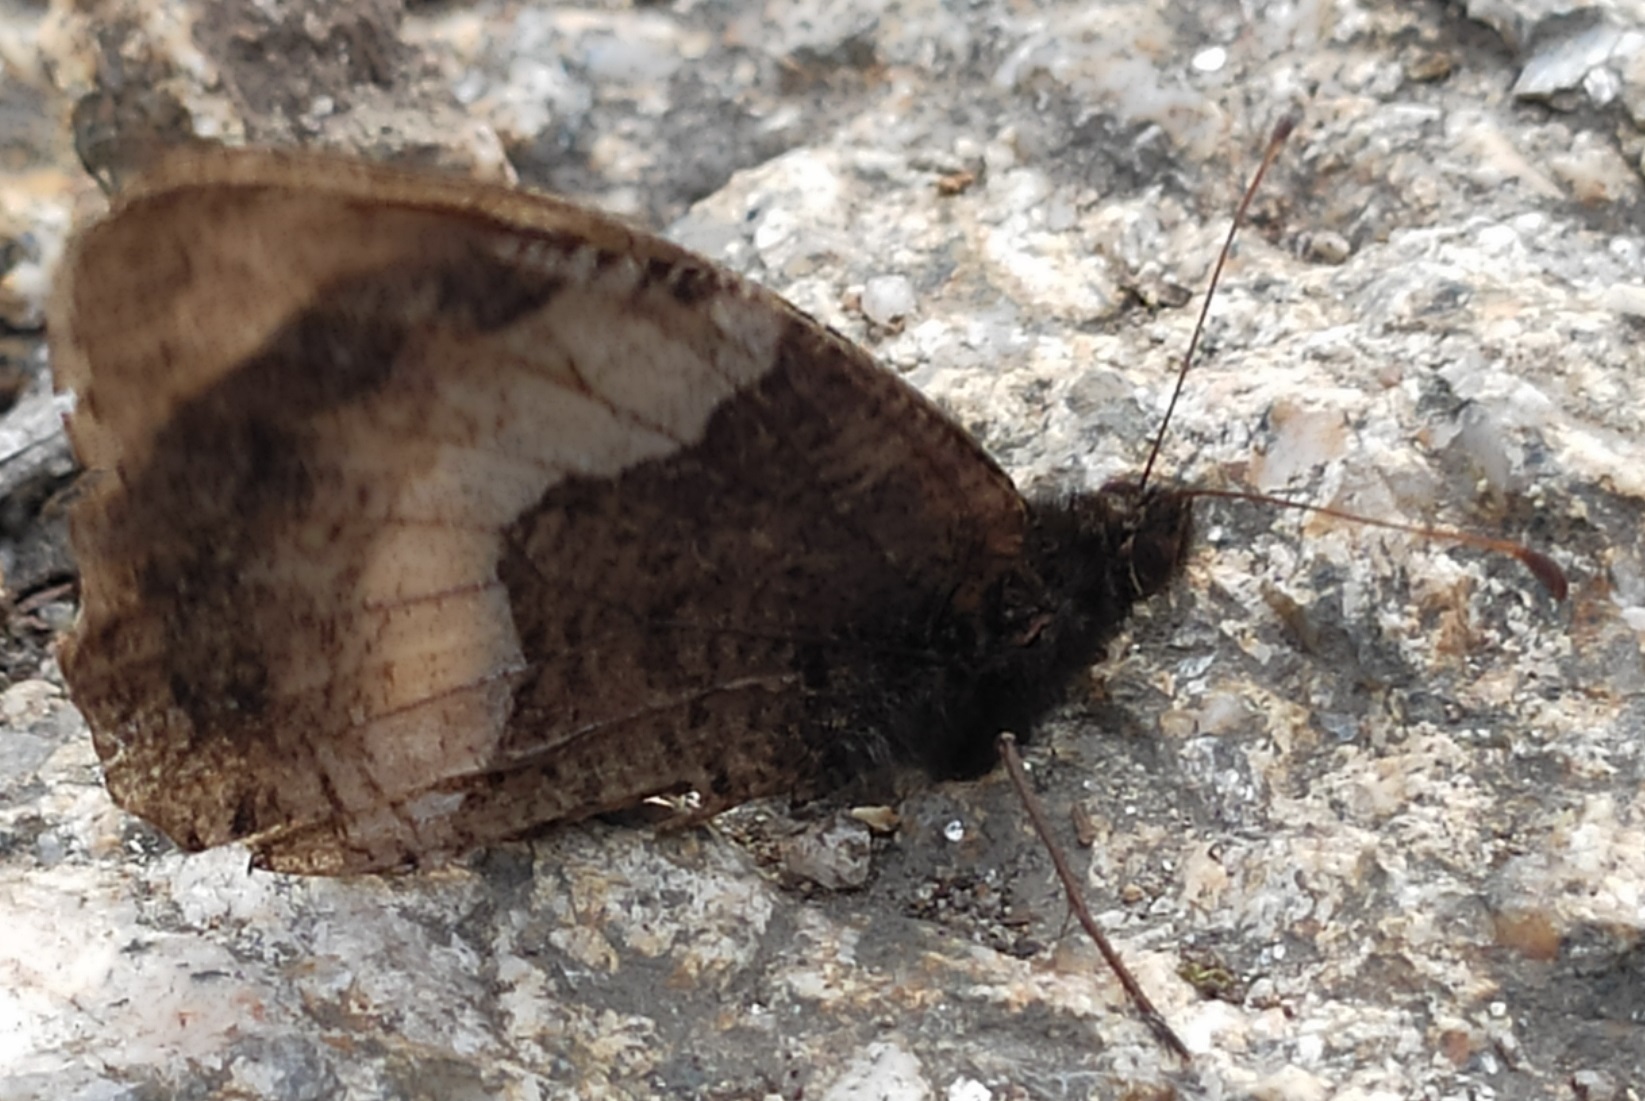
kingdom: Animalia
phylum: Arthropoda
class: Insecta
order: Lepidoptera
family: Nymphalidae
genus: Hipparchia
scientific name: Hipparchia hermione
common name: Rock grayling
